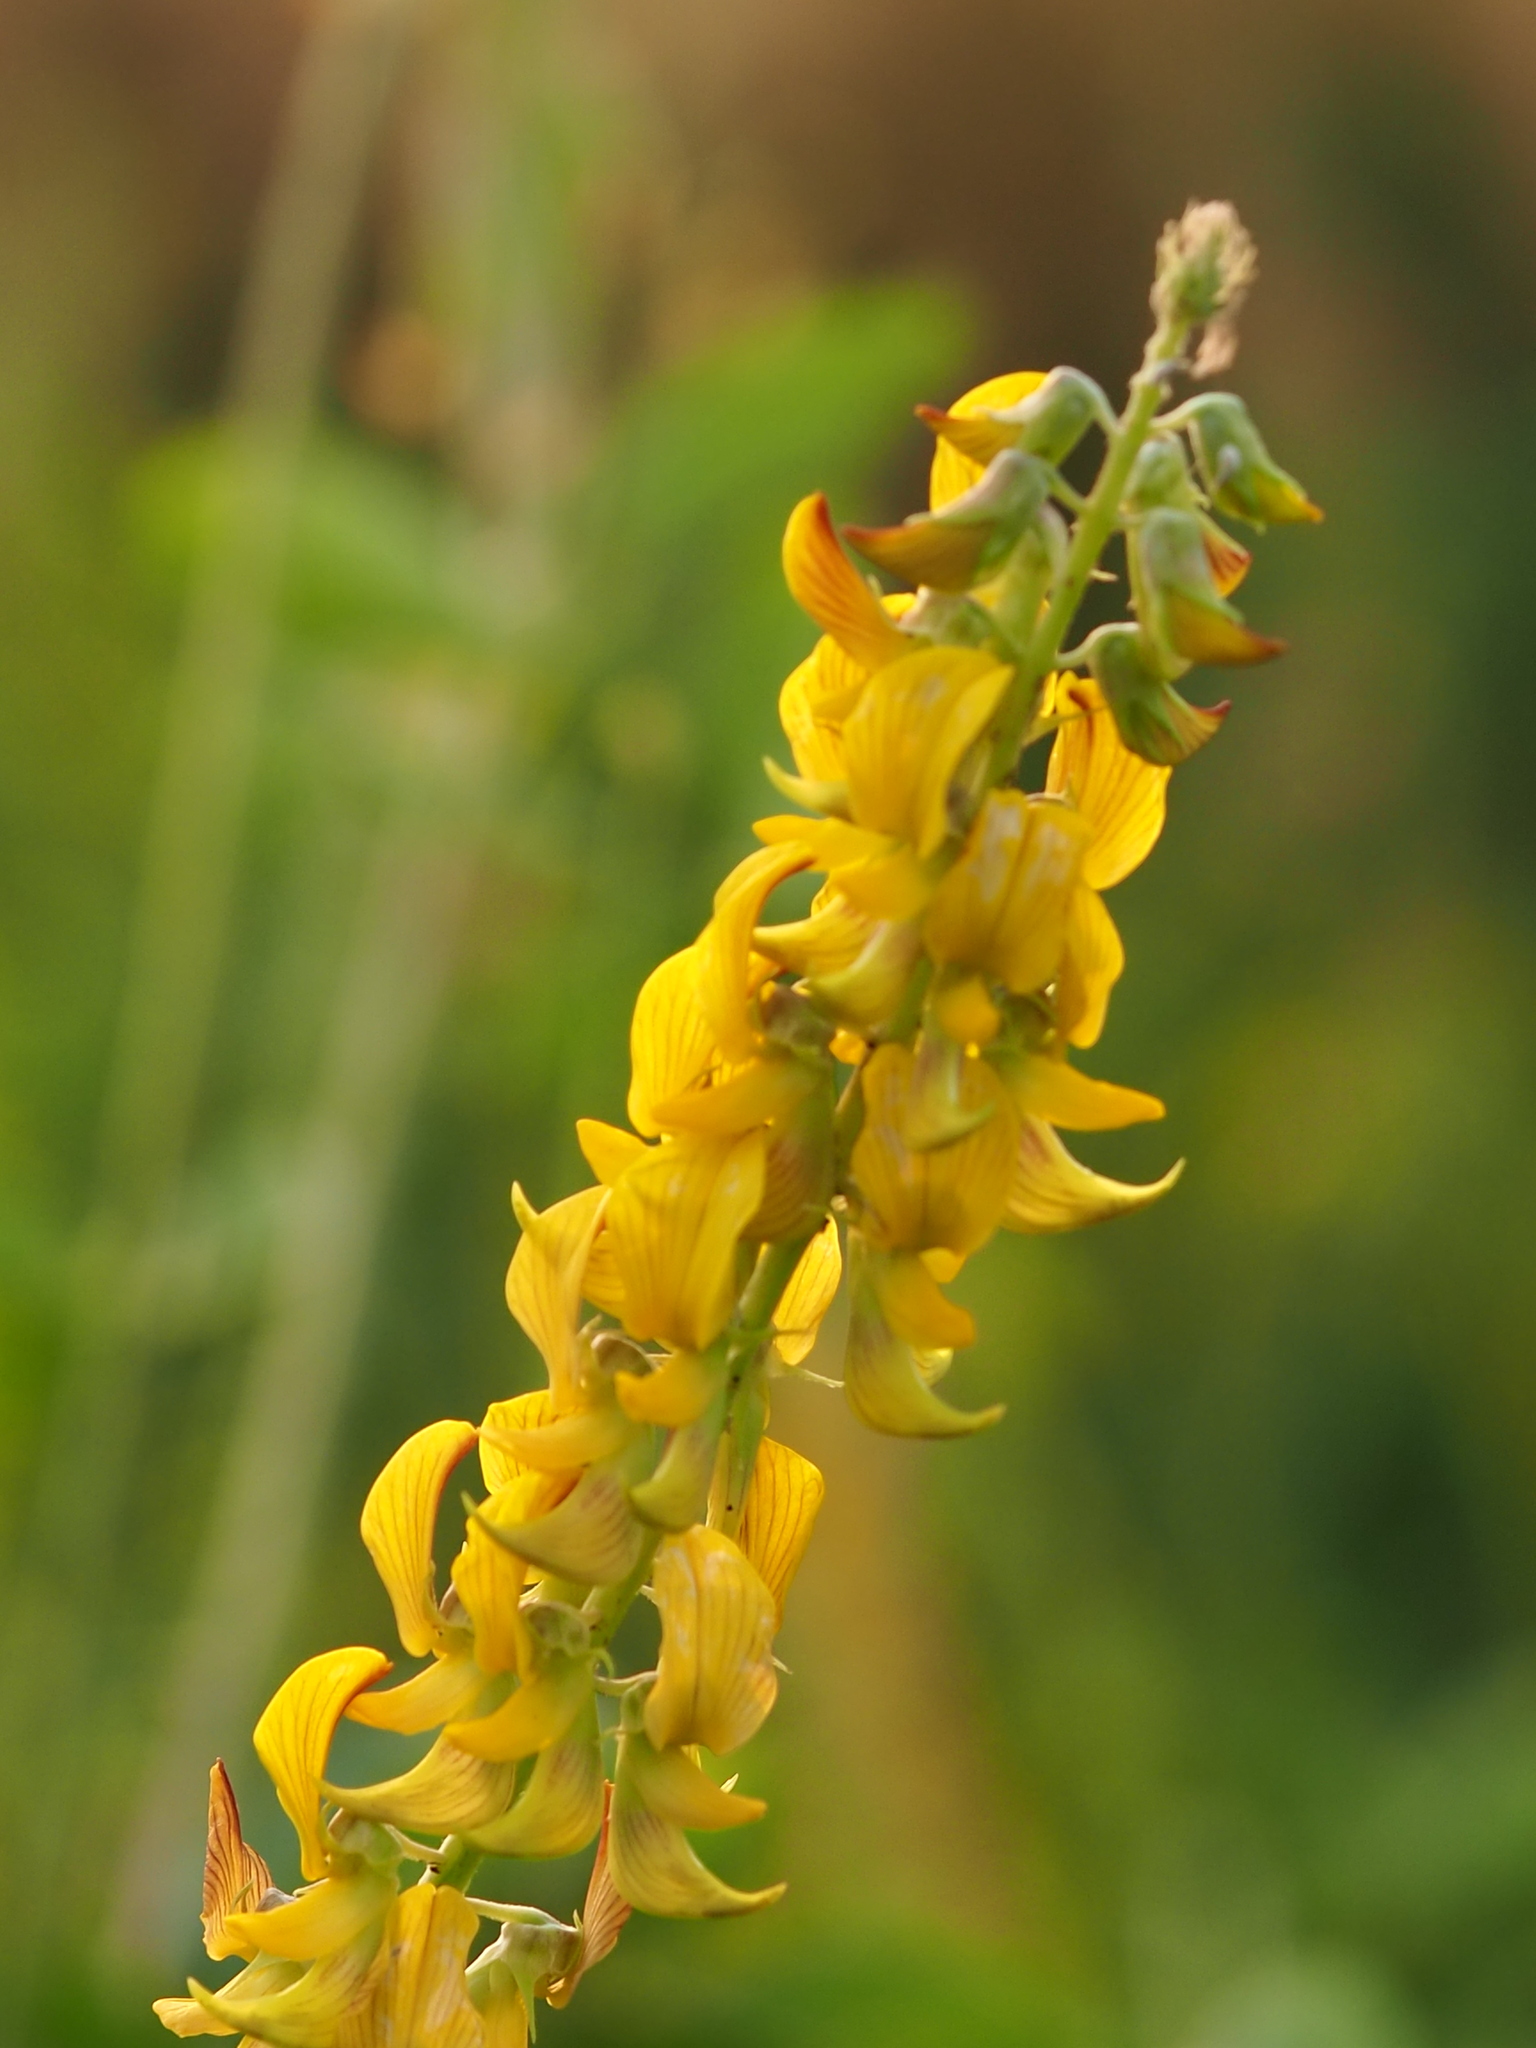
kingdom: Plantae
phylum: Tracheophyta
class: Magnoliopsida
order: Fabales
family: Fabaceae
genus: Crotalaria
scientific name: Crotalaria pallida
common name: Smooth rattlebox
